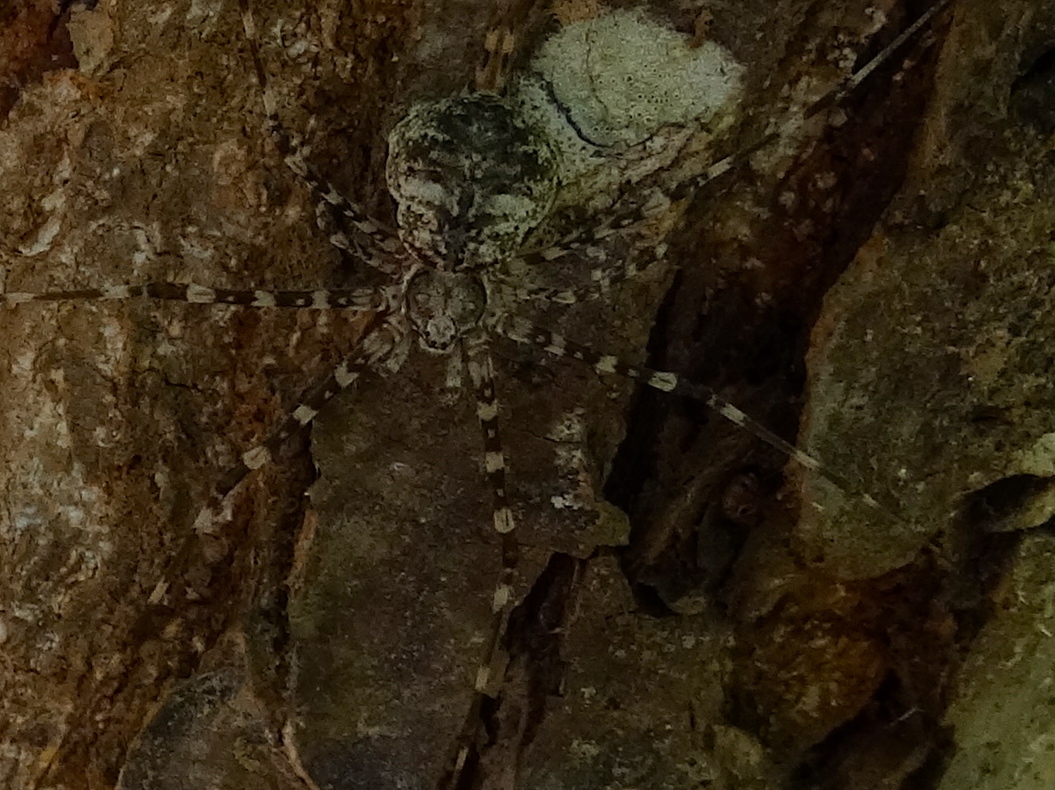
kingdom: Animalia
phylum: Arthropoda
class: Arachnida
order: Araneae
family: Hersiliidae
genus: Neotama
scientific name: Neotama
